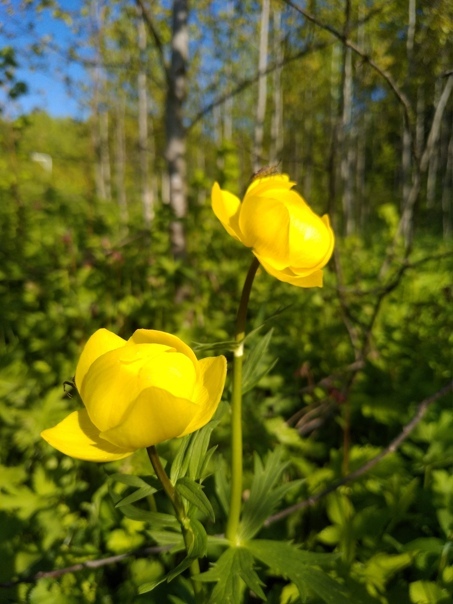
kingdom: Plantae
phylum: Tracheophyta
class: Magnoliopsida
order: Ranunculales
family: Ranunculaceae
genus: Trollius
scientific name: Trollius europaeus
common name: European globeflower
